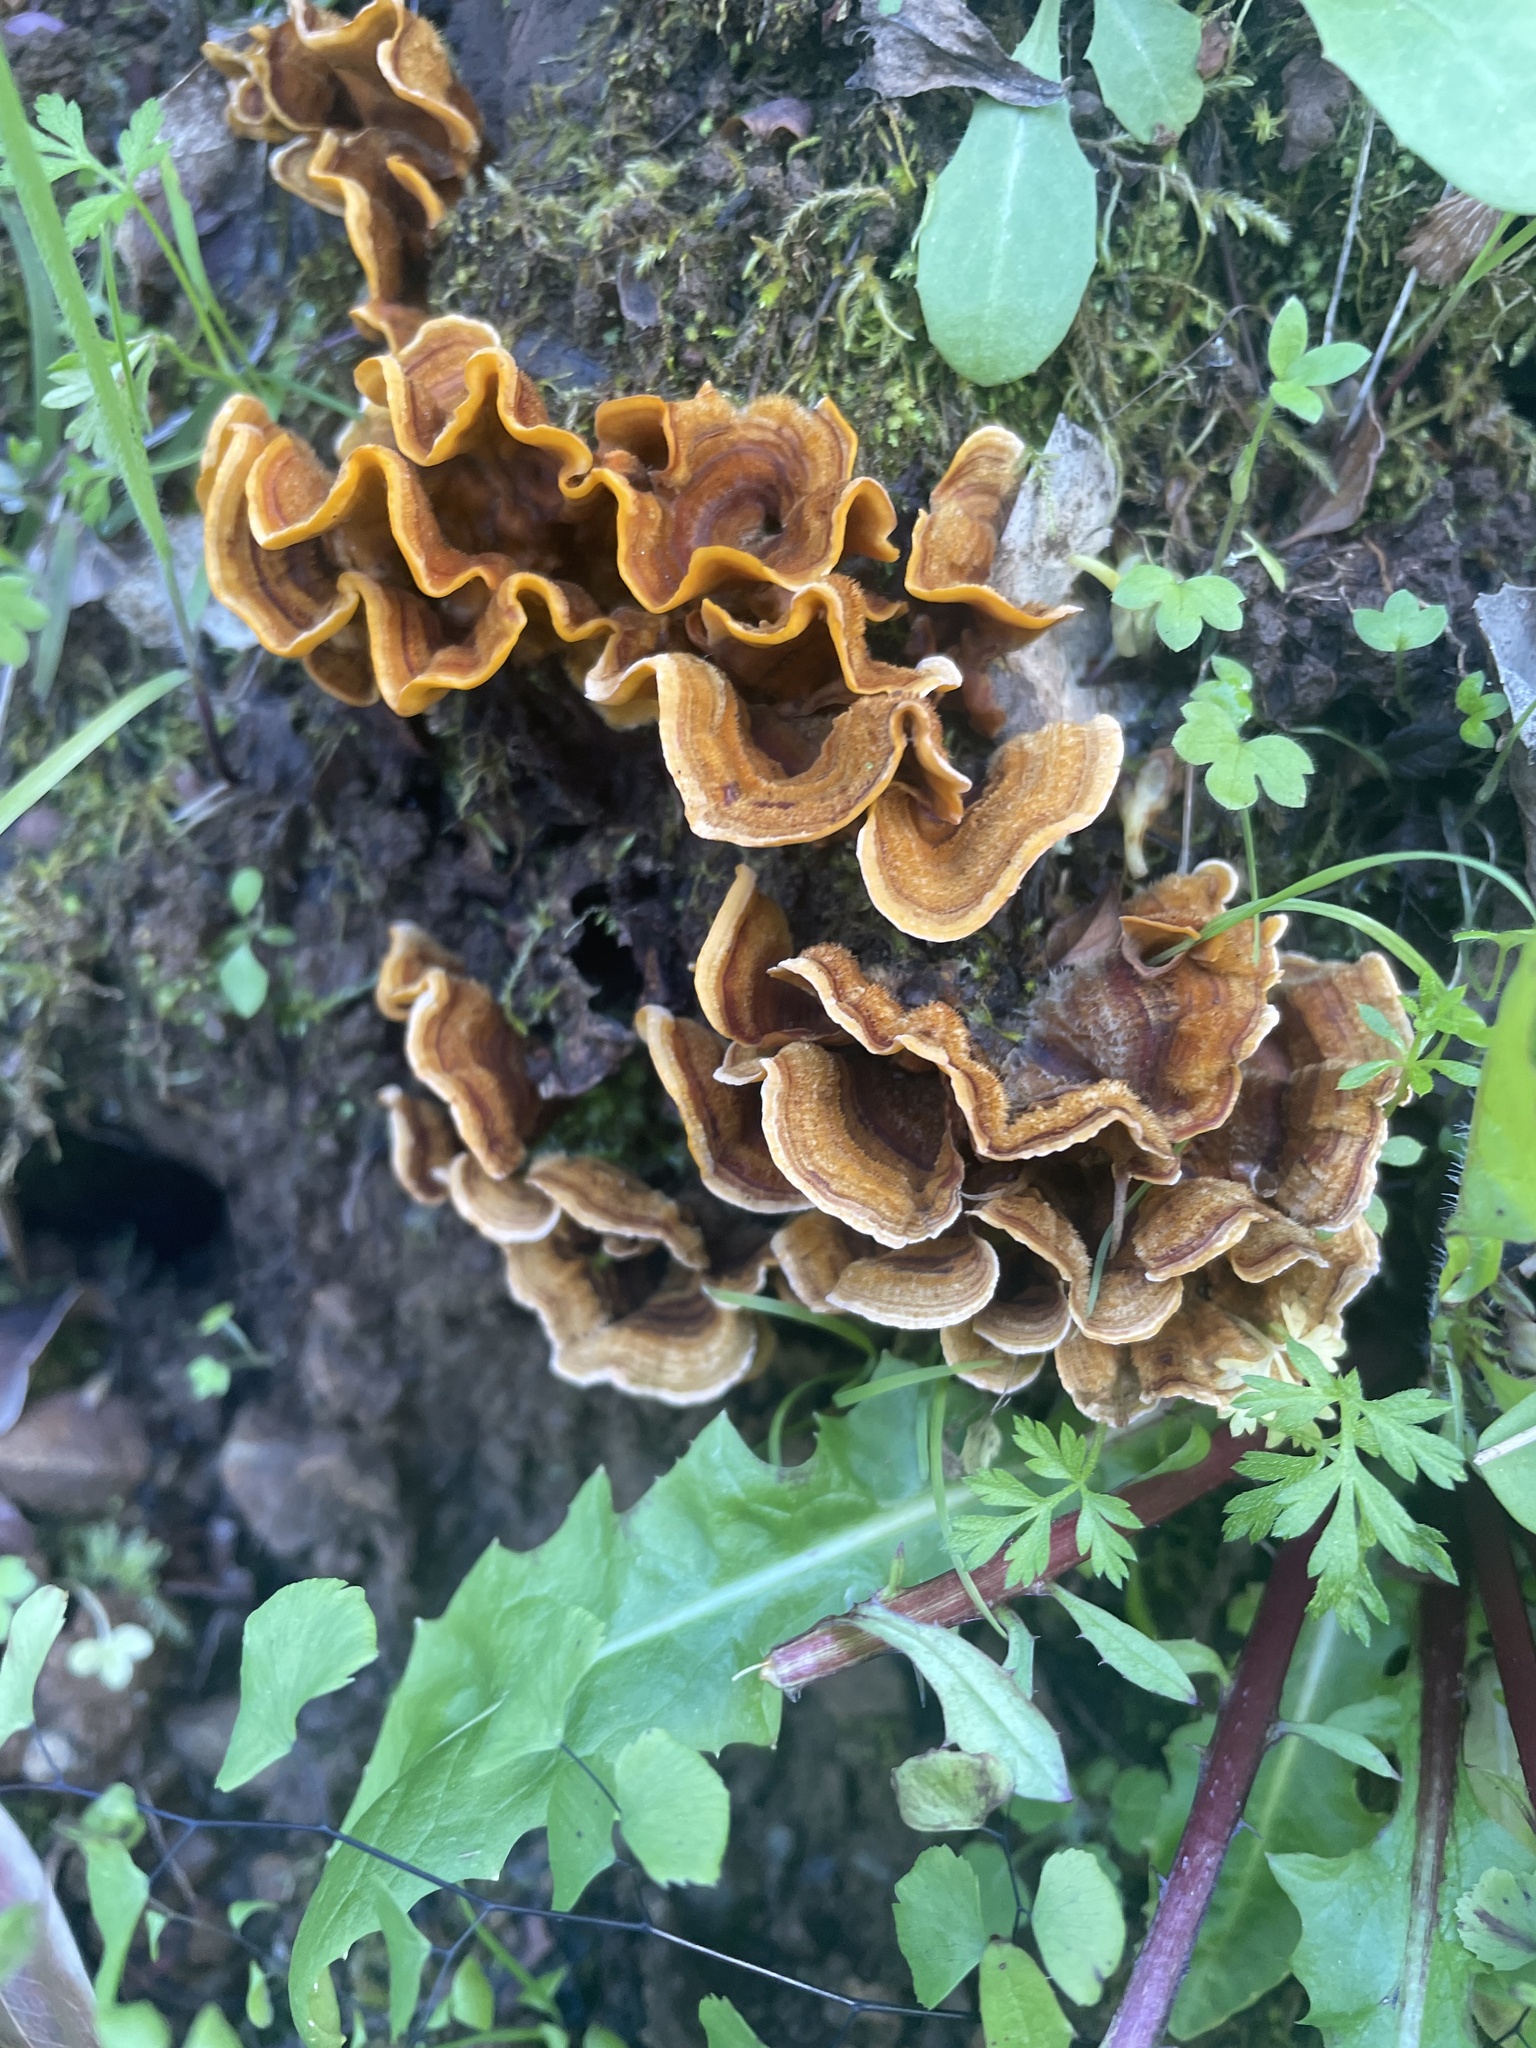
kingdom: Fungi
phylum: Basidiomycota
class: Agaricomycetes
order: Russulales
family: Stereaceae
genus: Stereum
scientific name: Stereum hirsutum
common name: Hairy curtain crust
